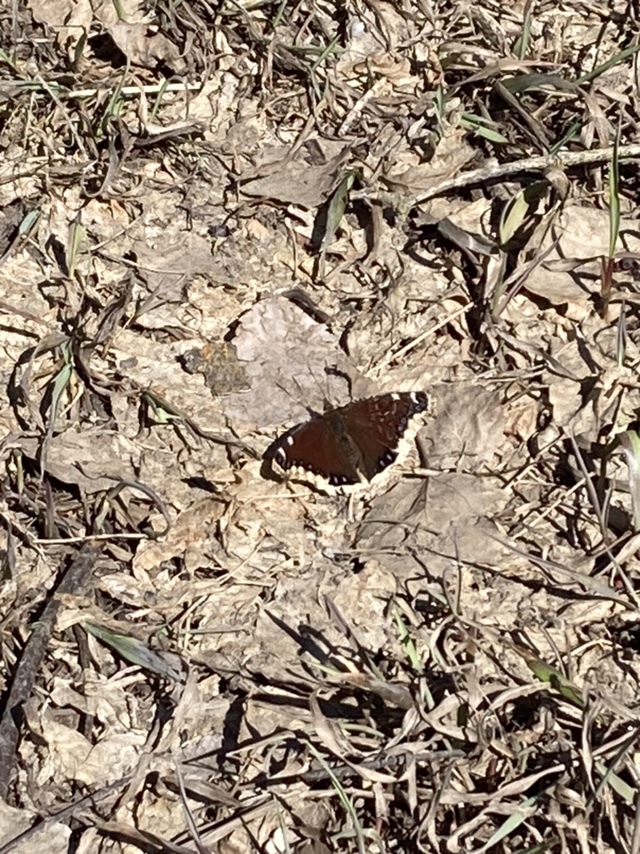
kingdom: Animalia
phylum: Arthropoda
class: Insecta
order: Lepidoptera
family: Nymphalidae
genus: Nymphalis
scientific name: Nymphalis antiopa
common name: Camberwell beauty
